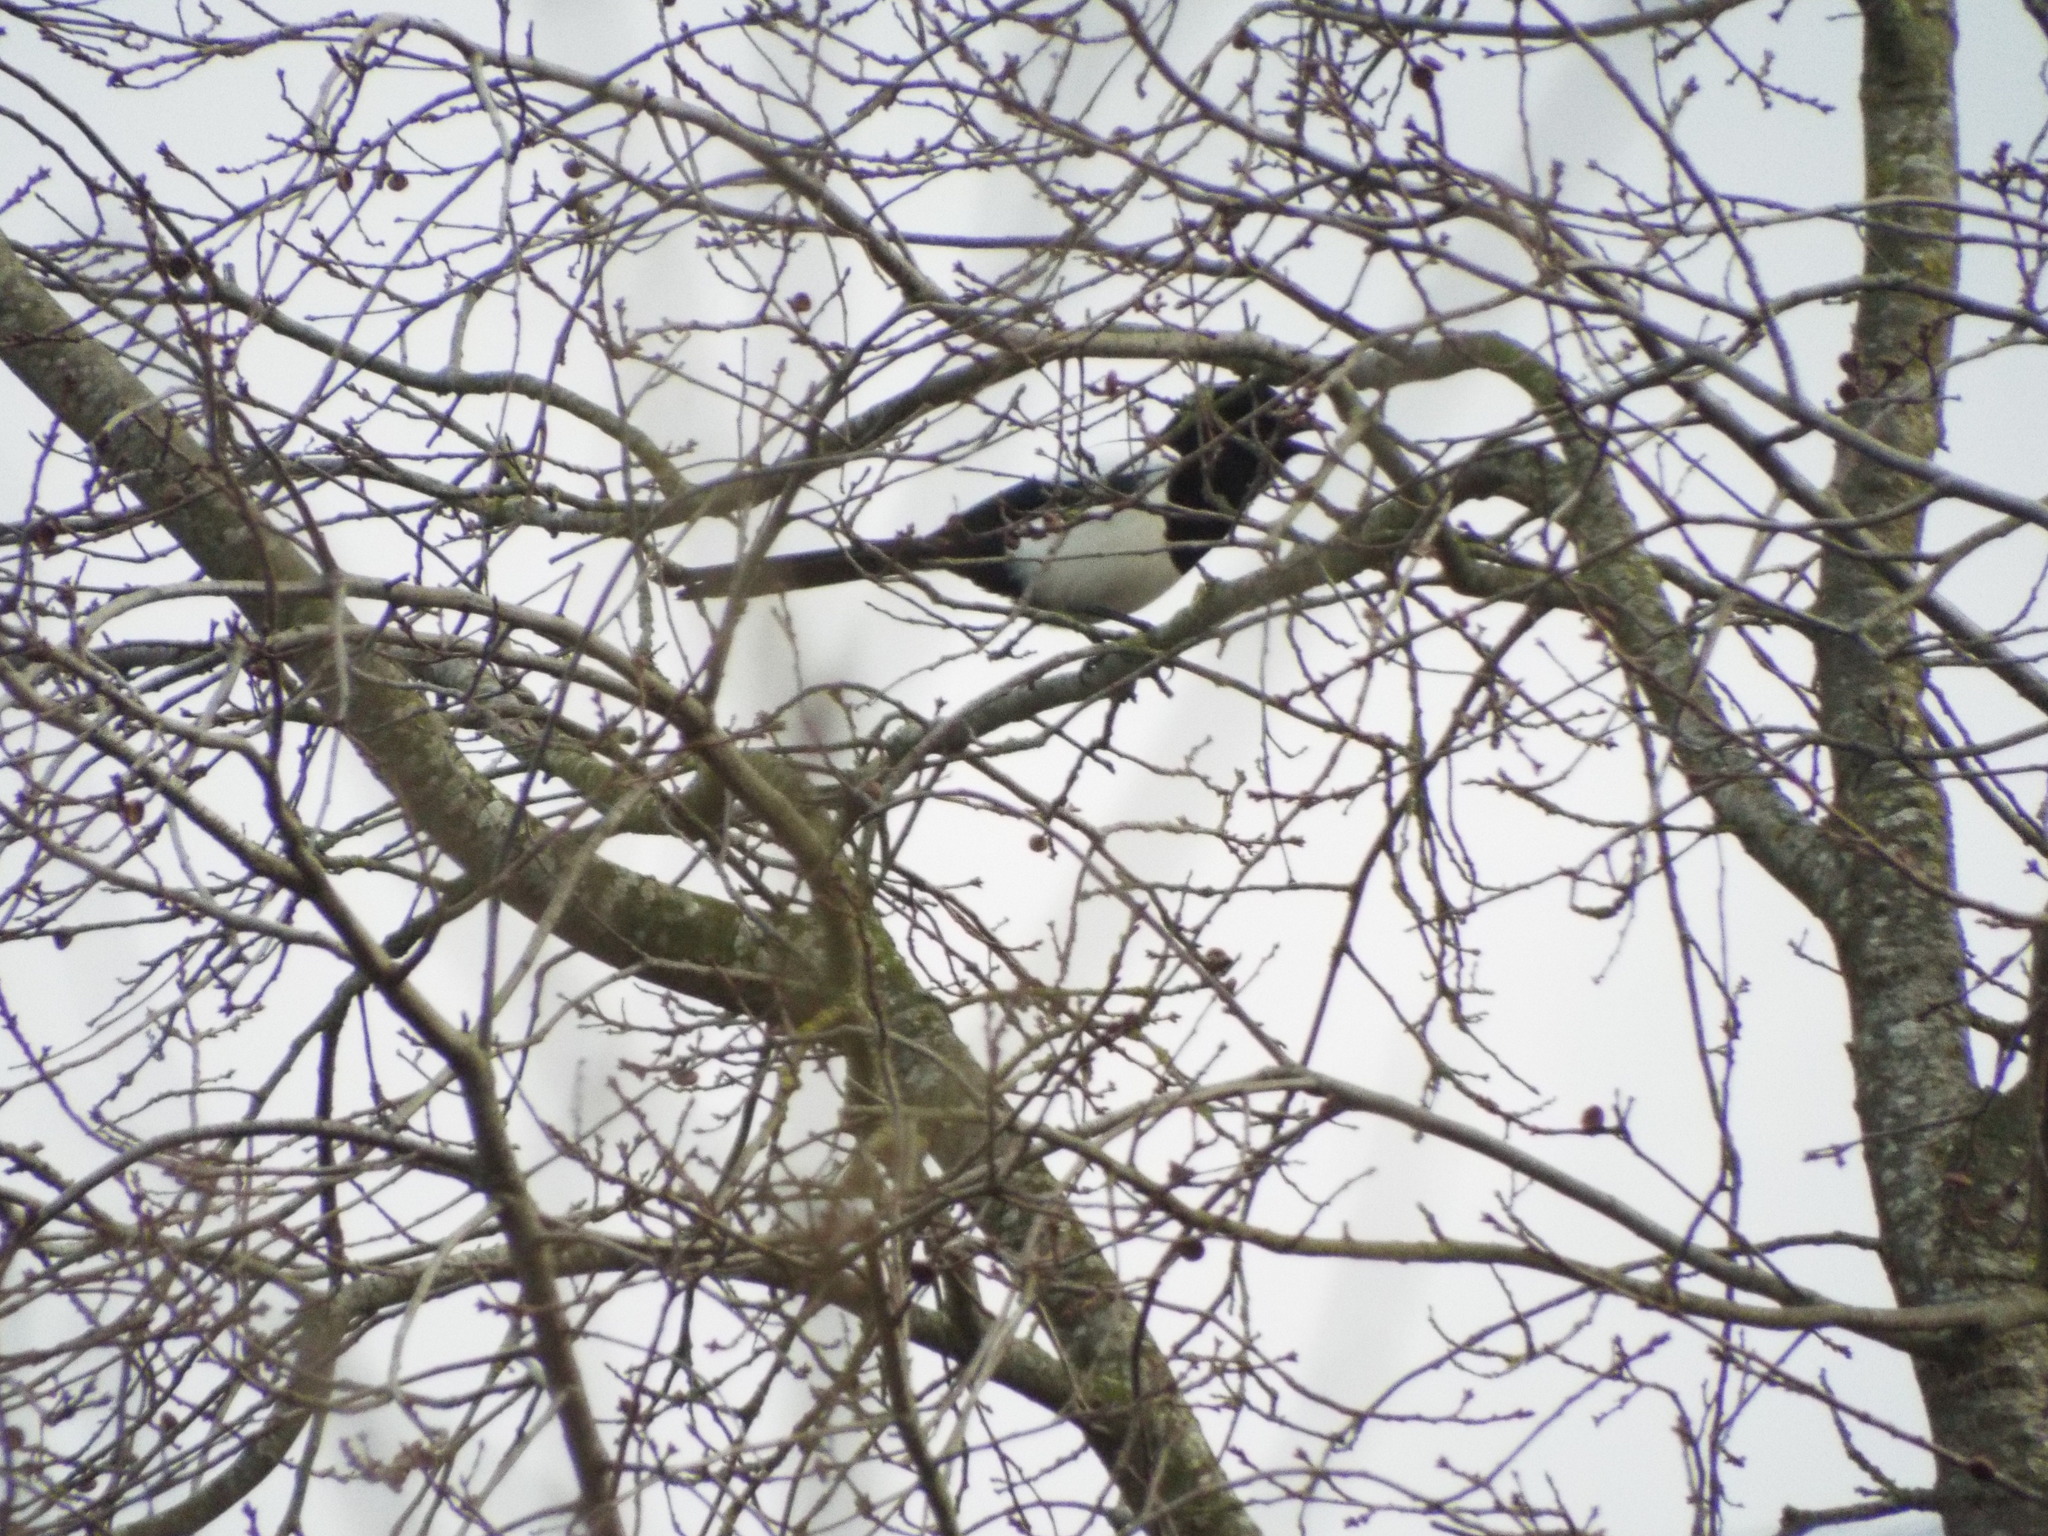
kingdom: Animalia
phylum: Chordata
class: Aves
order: Passeriformes
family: Corvidae
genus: Pica
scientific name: Pica pica
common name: Eurasian magpie
